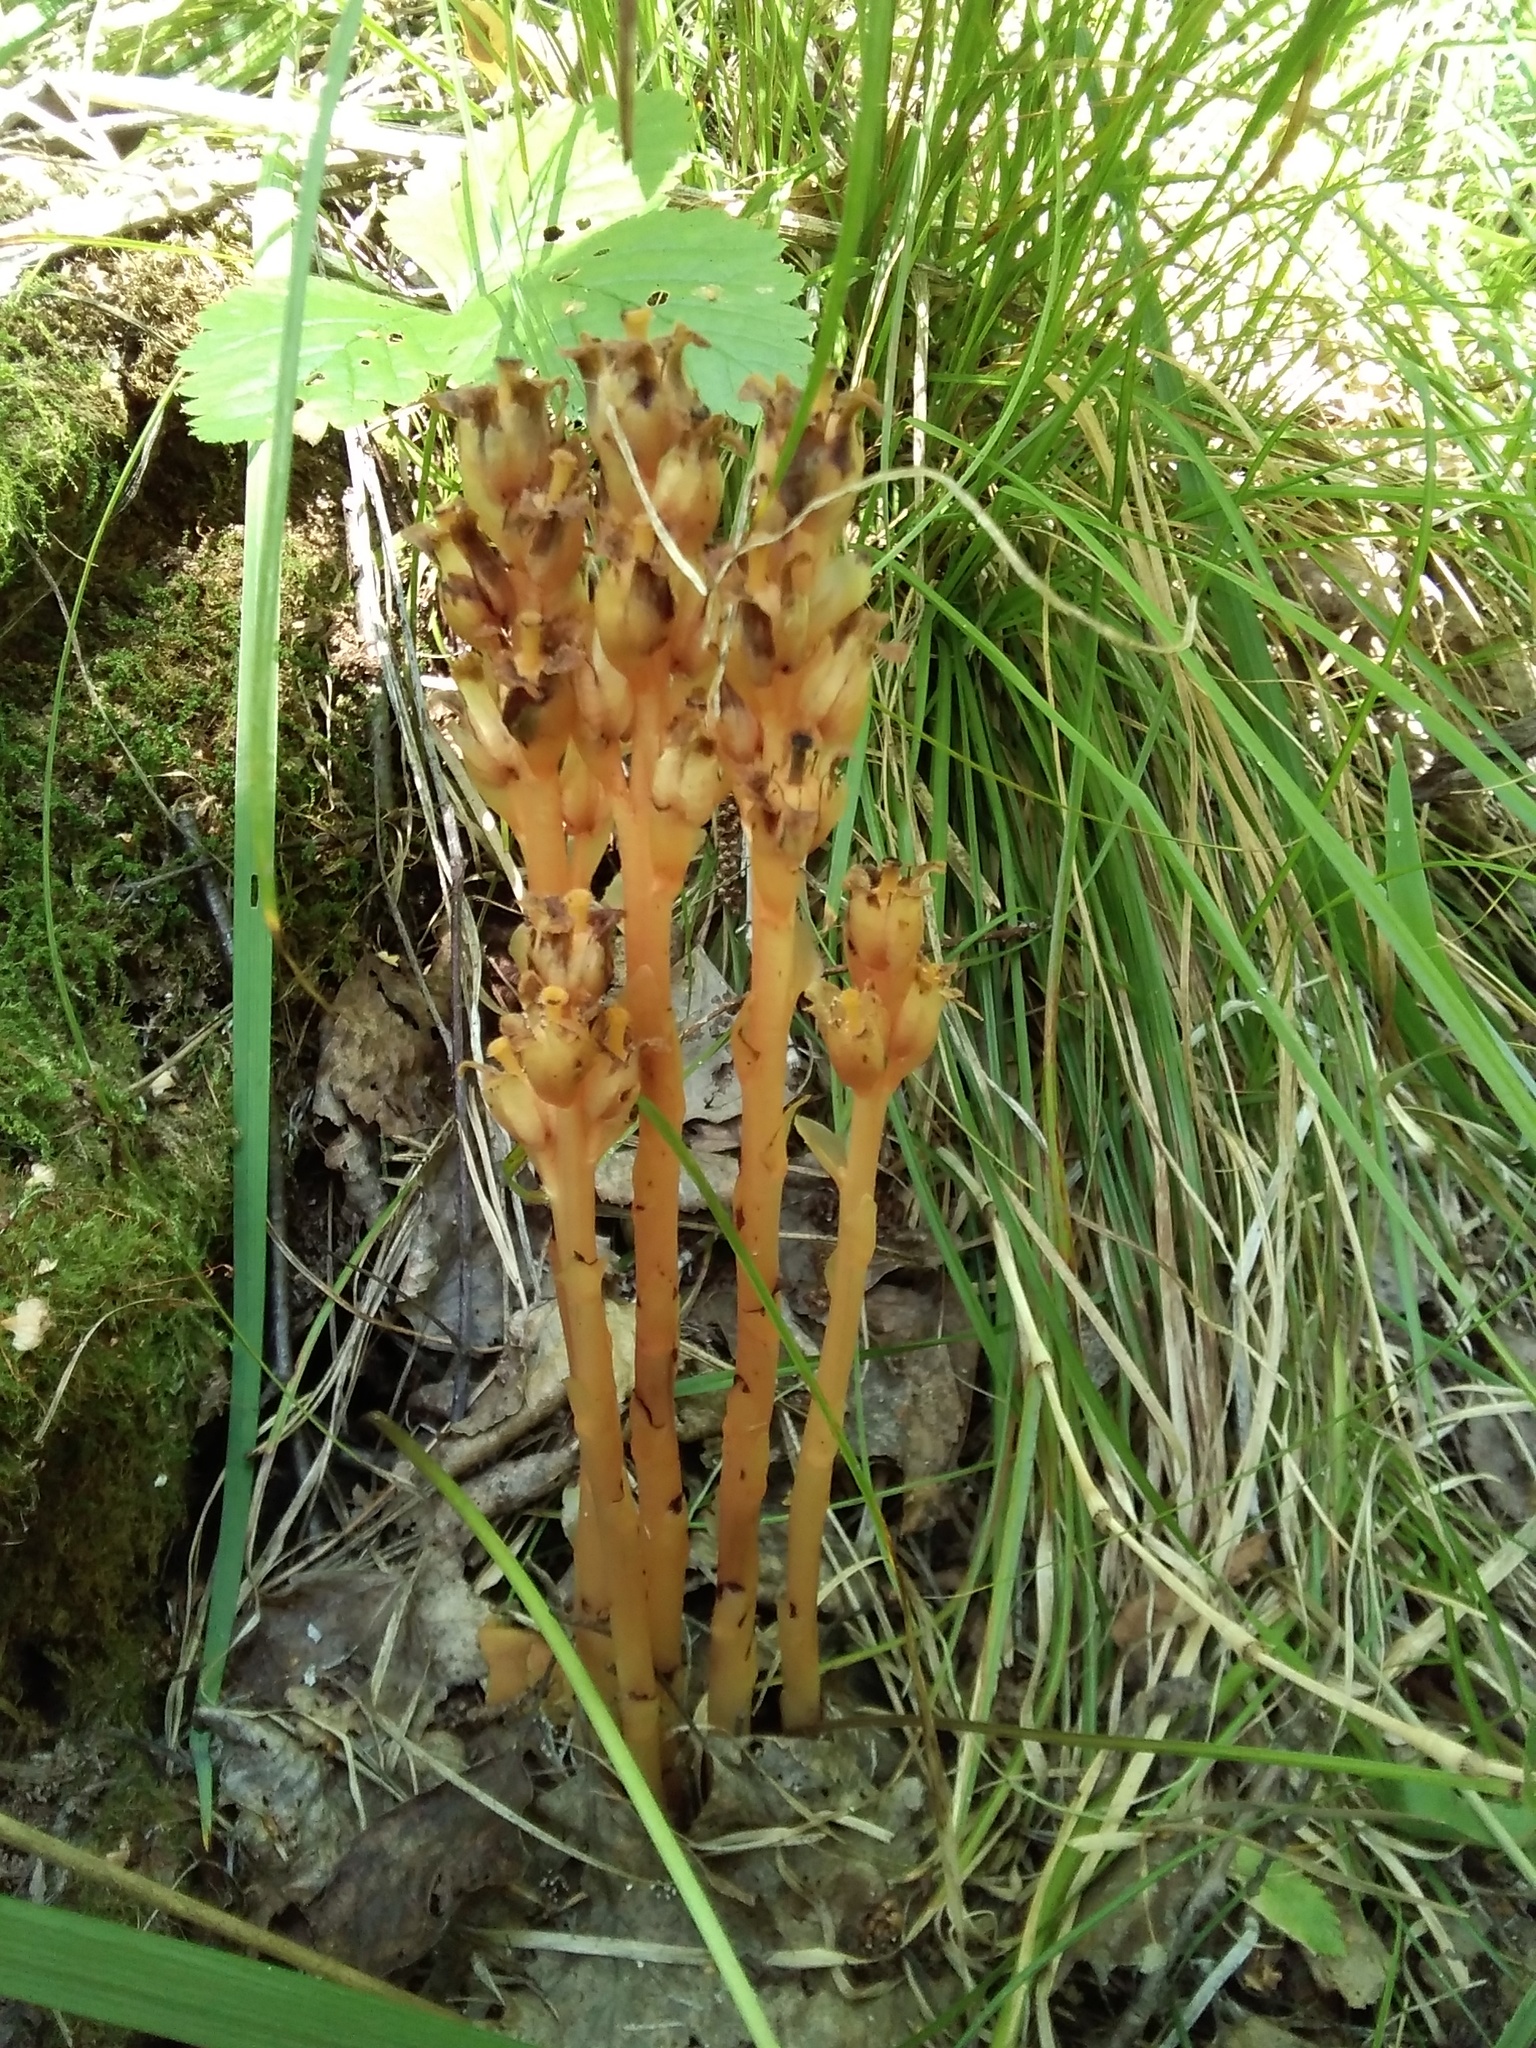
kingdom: Plantae
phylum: Tracheophyta
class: Magnoliopsida
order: Ericales
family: Ericaceae
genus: Hypopitys
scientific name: Hypopitys monotropa
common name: Yellow bird's-nest
